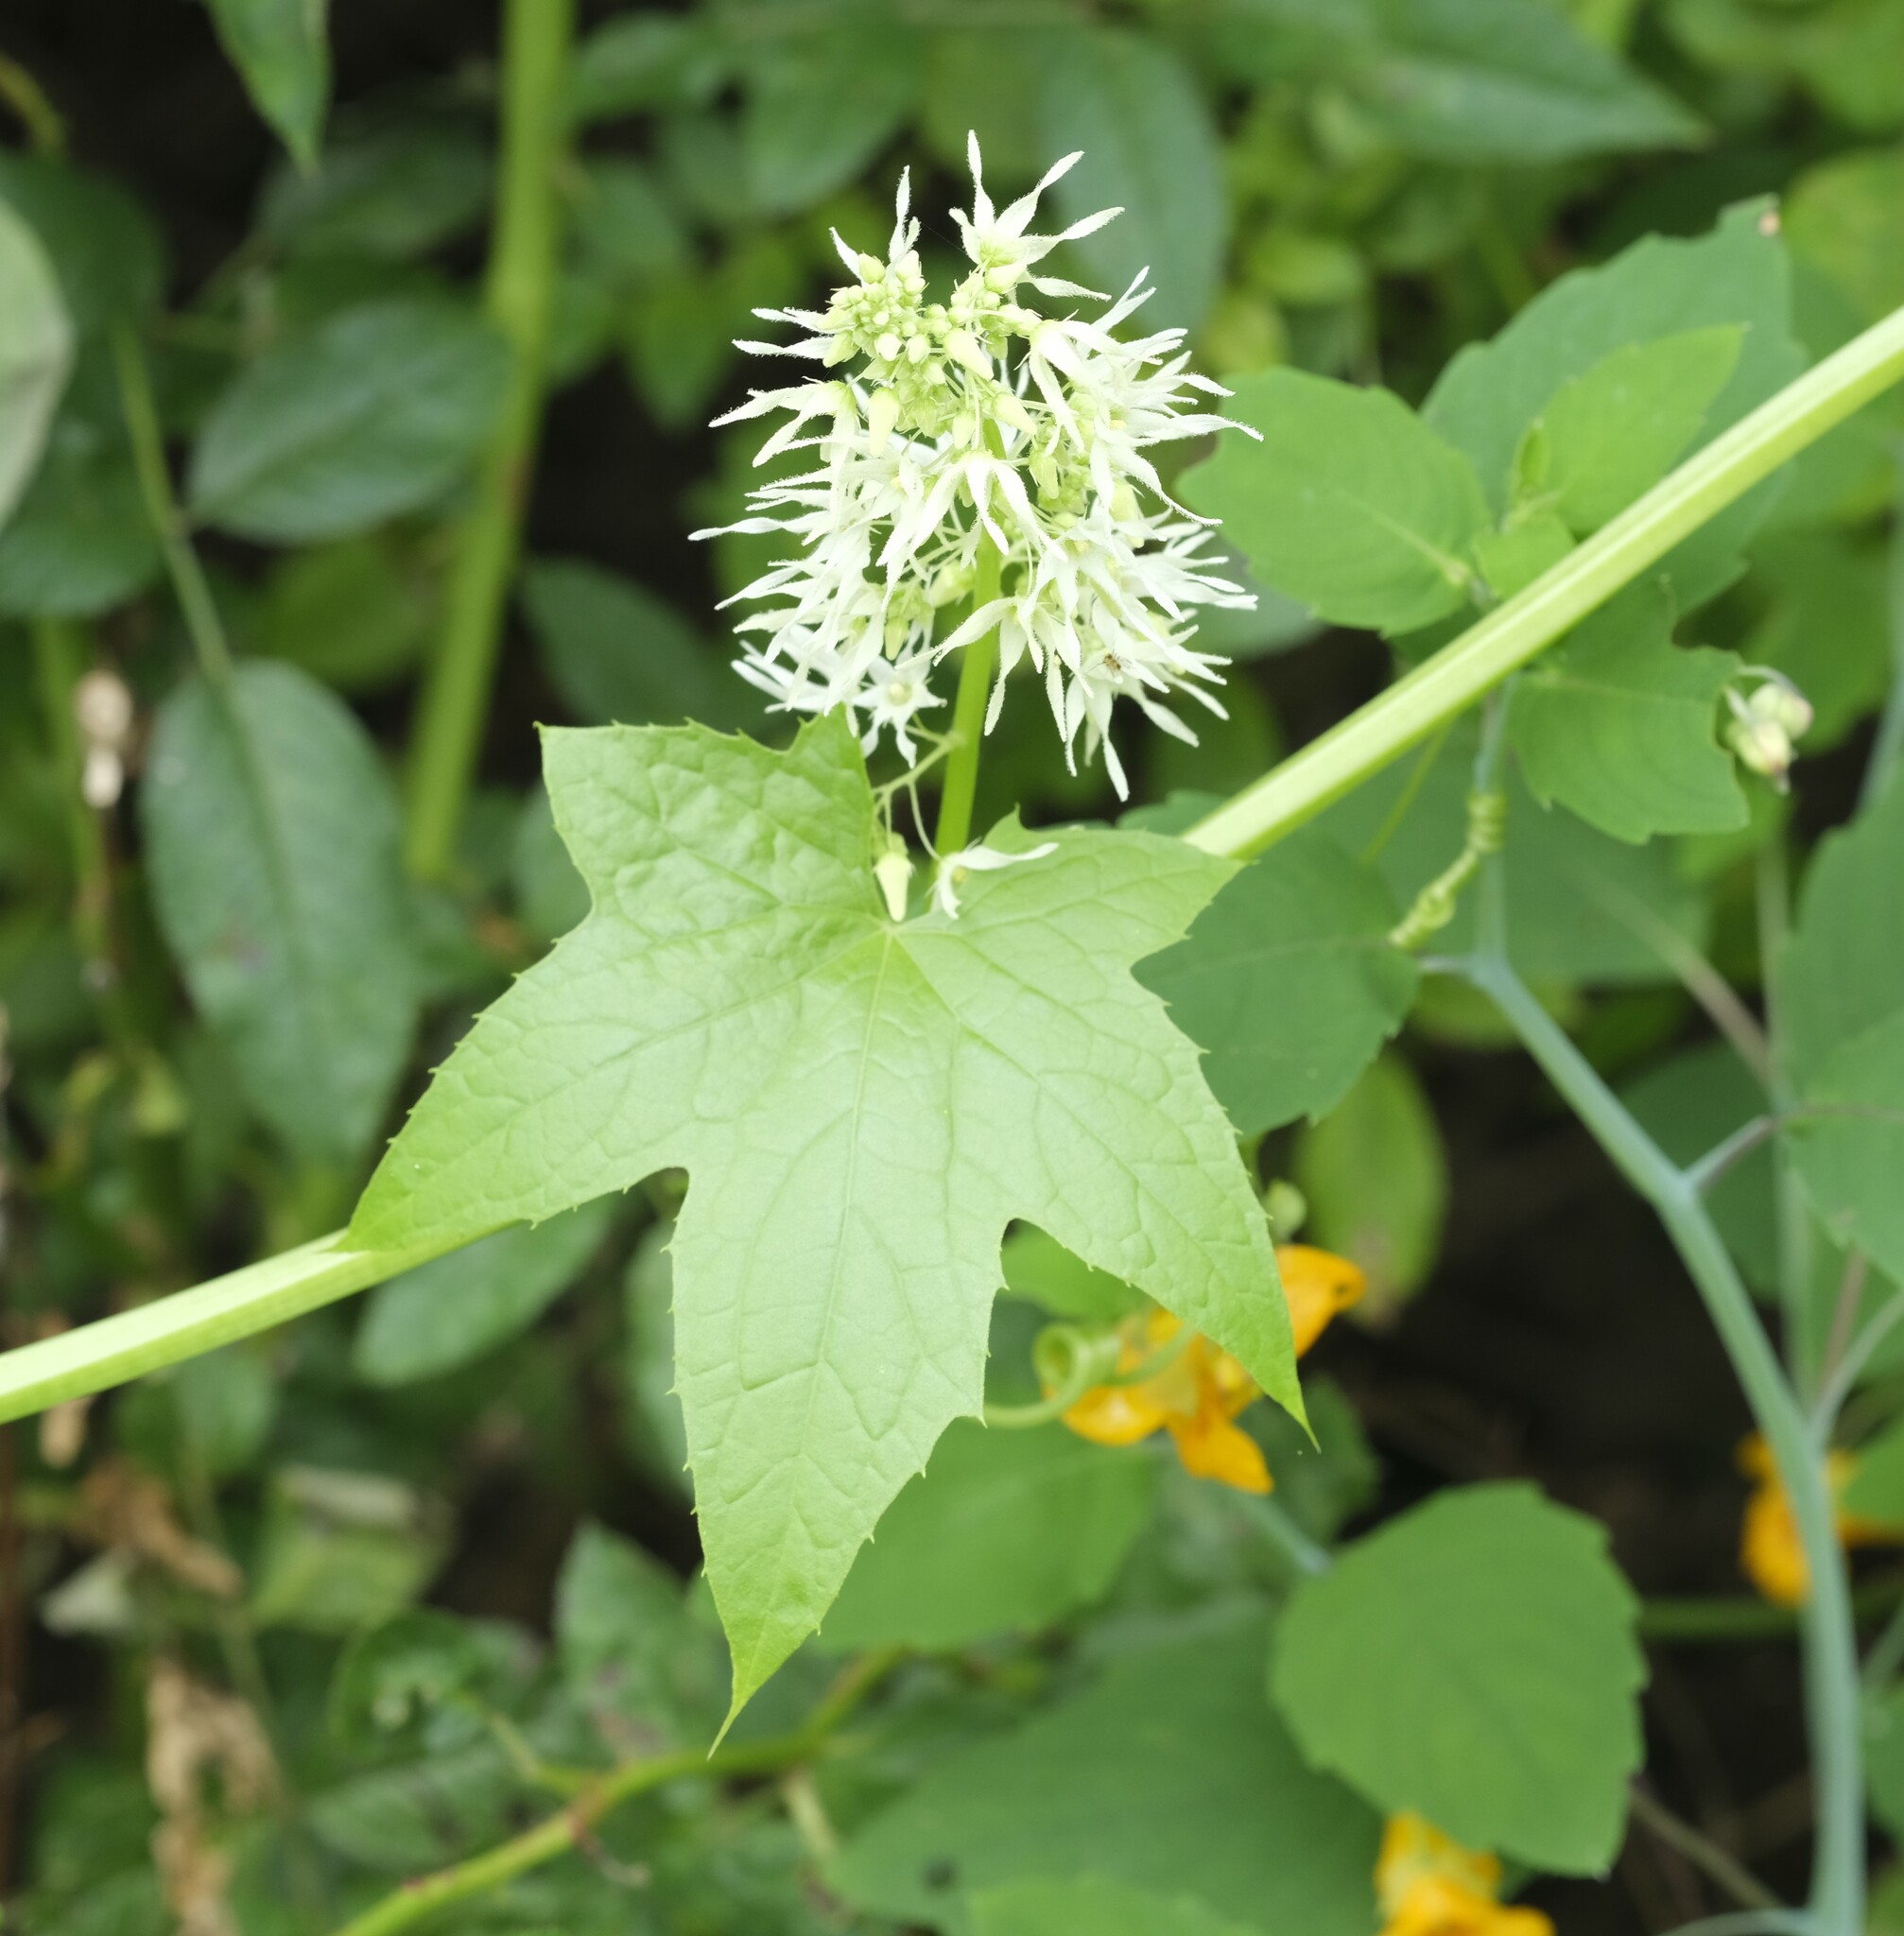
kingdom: Plantae
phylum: Tracheophyta
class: Magnoliopsida
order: Cucurbitales
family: Cucurbitaceae
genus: Echinocystis
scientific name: Echinocystis lobata
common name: Wild cucumber
